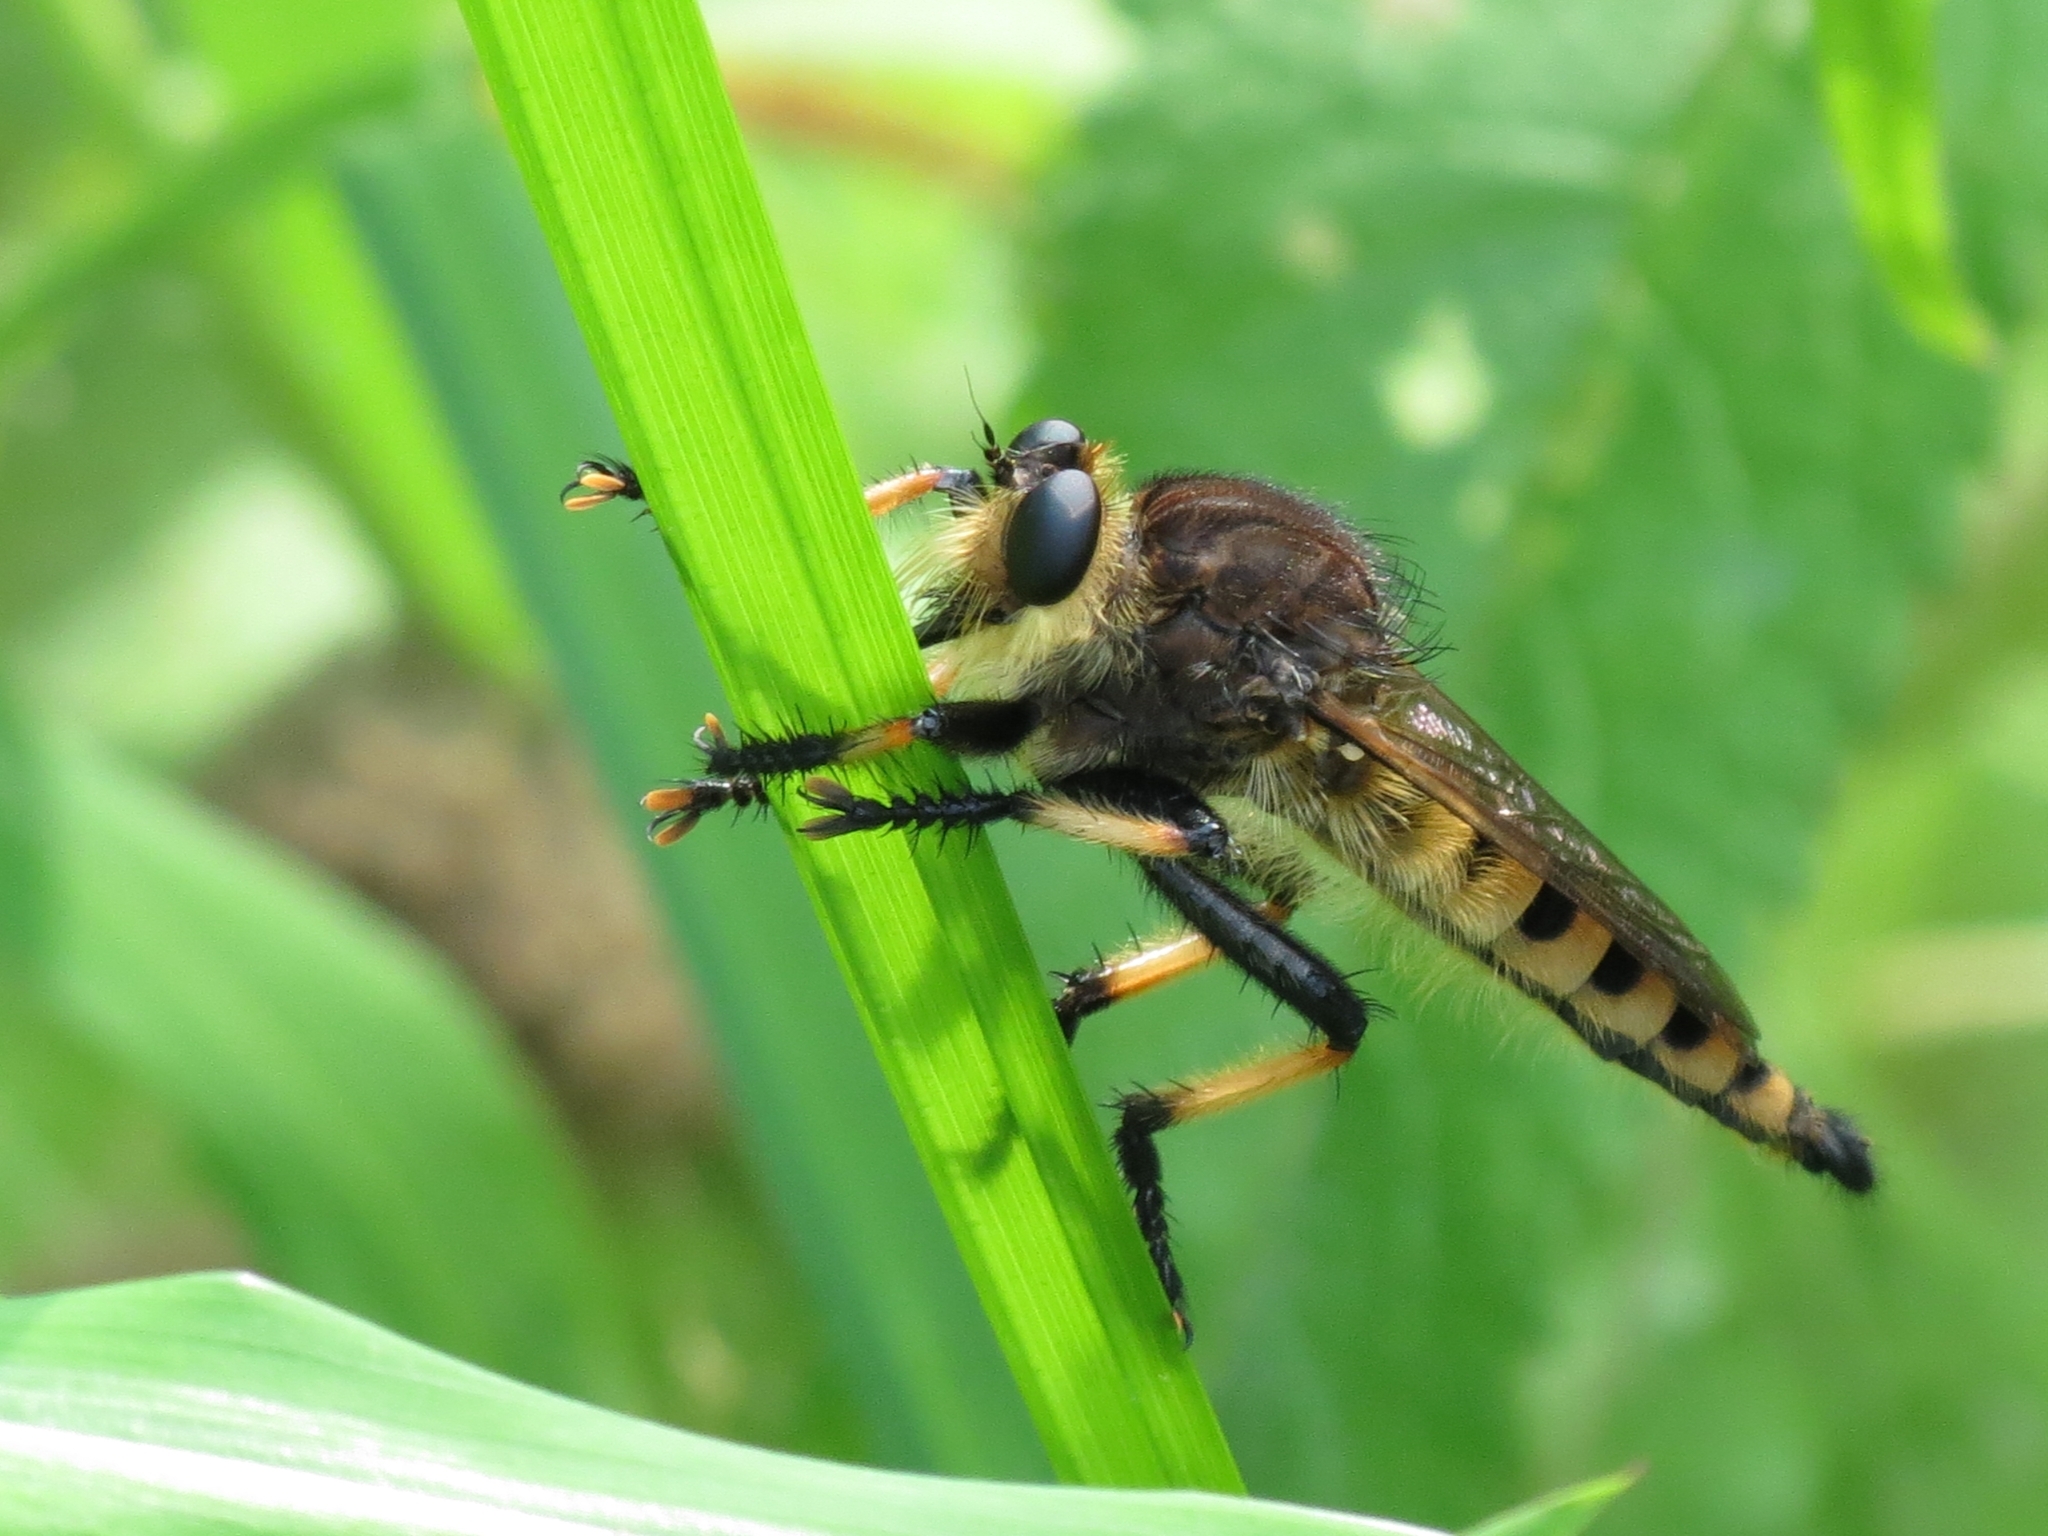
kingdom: Animalia
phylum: Arthropoda
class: Insecta
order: Diptera
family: Asilidae
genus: Promachus
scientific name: Promachus rufipes
